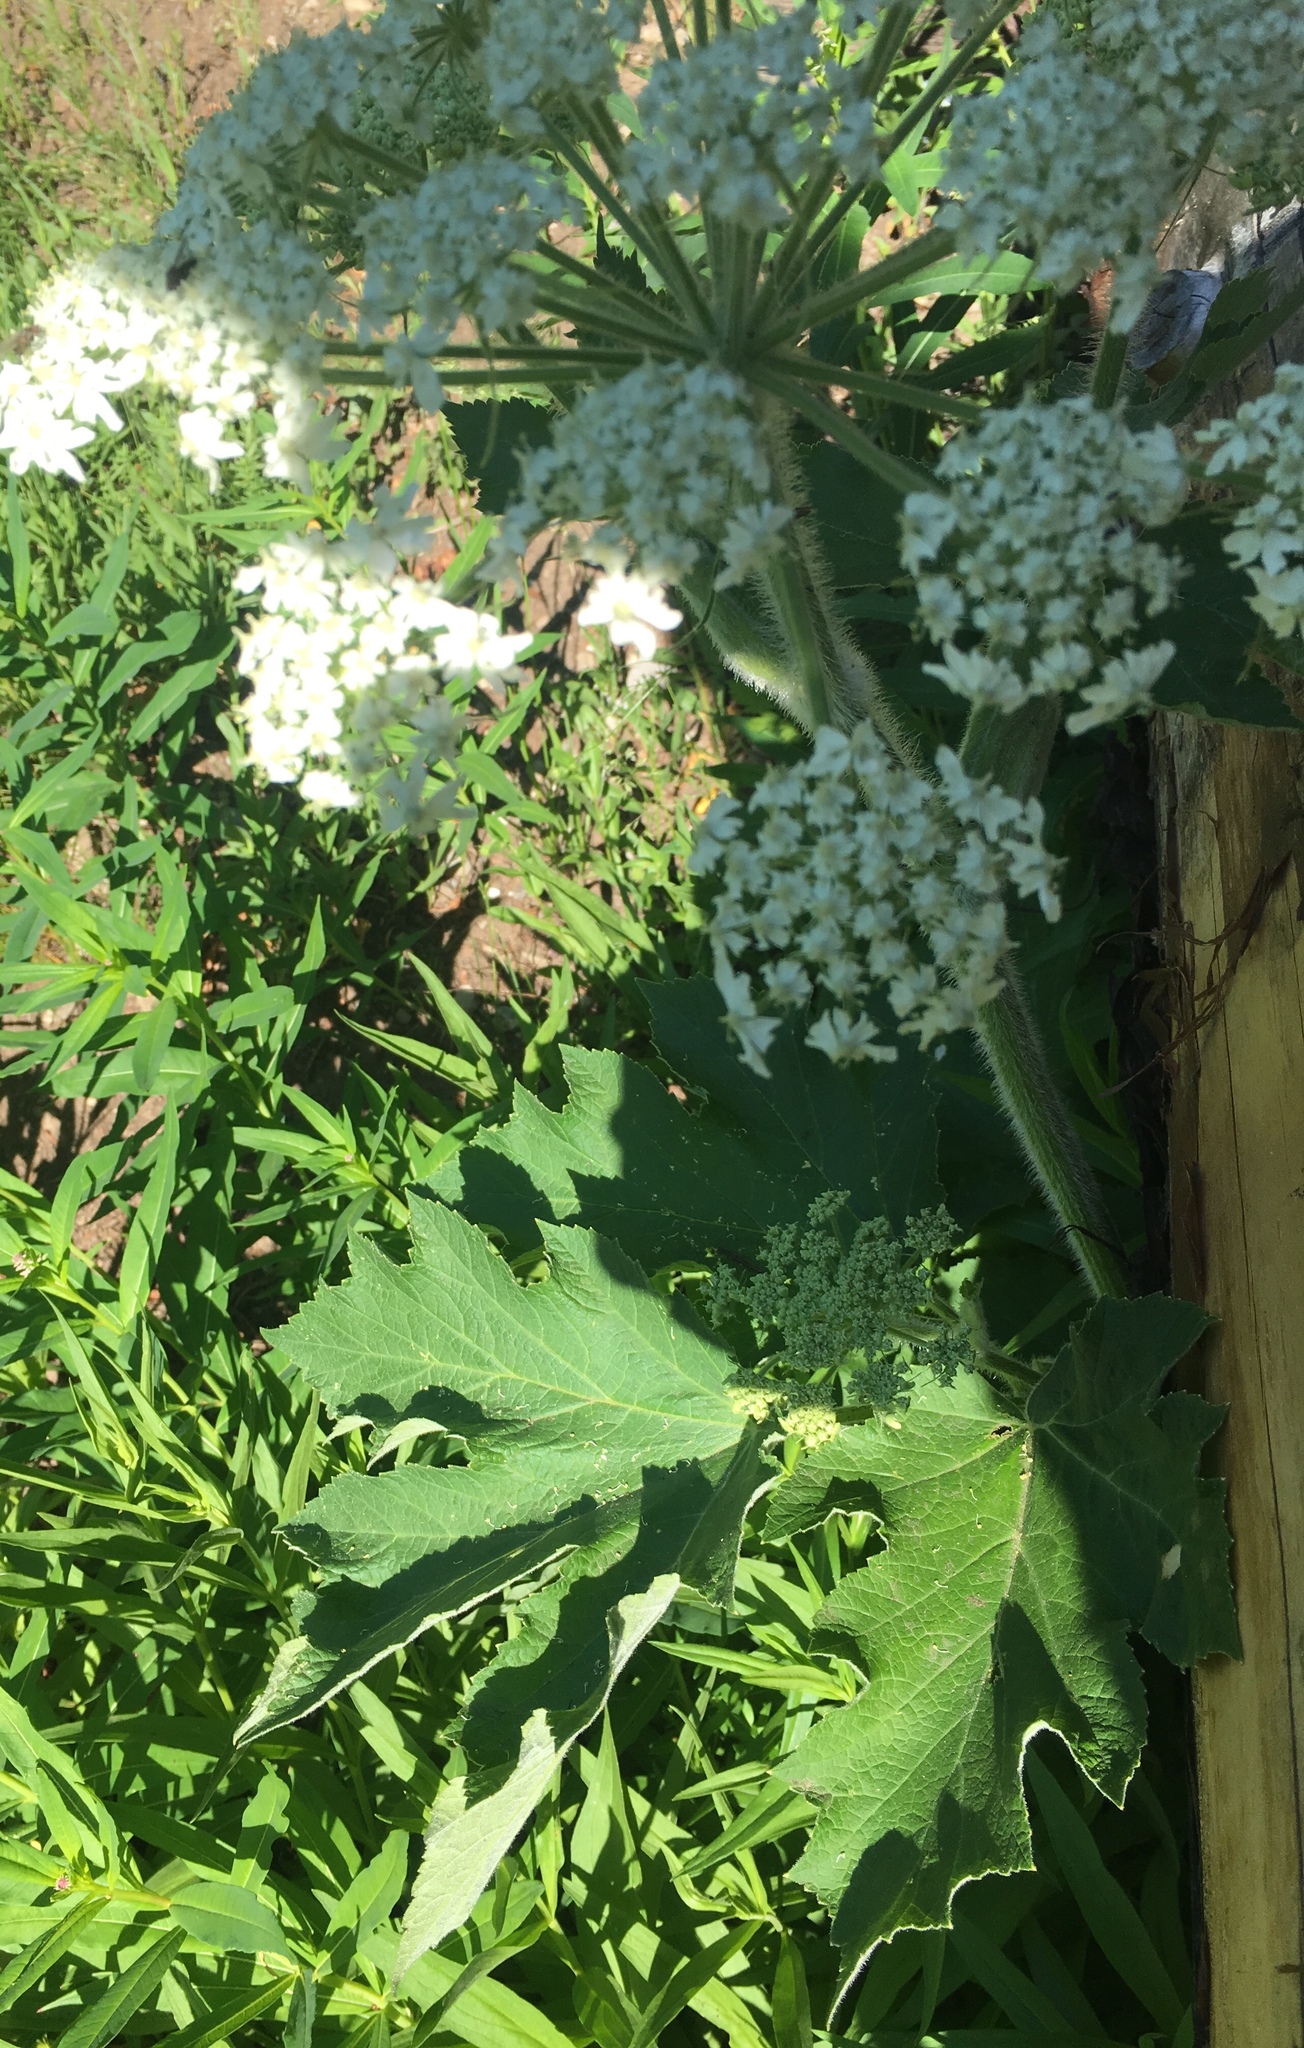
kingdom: Plantae
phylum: Tracheophyta
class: Magnoliopsida
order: Apiales
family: Apiaceae
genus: Heracleum
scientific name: Heracleum maximum
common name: American cow parsnip
